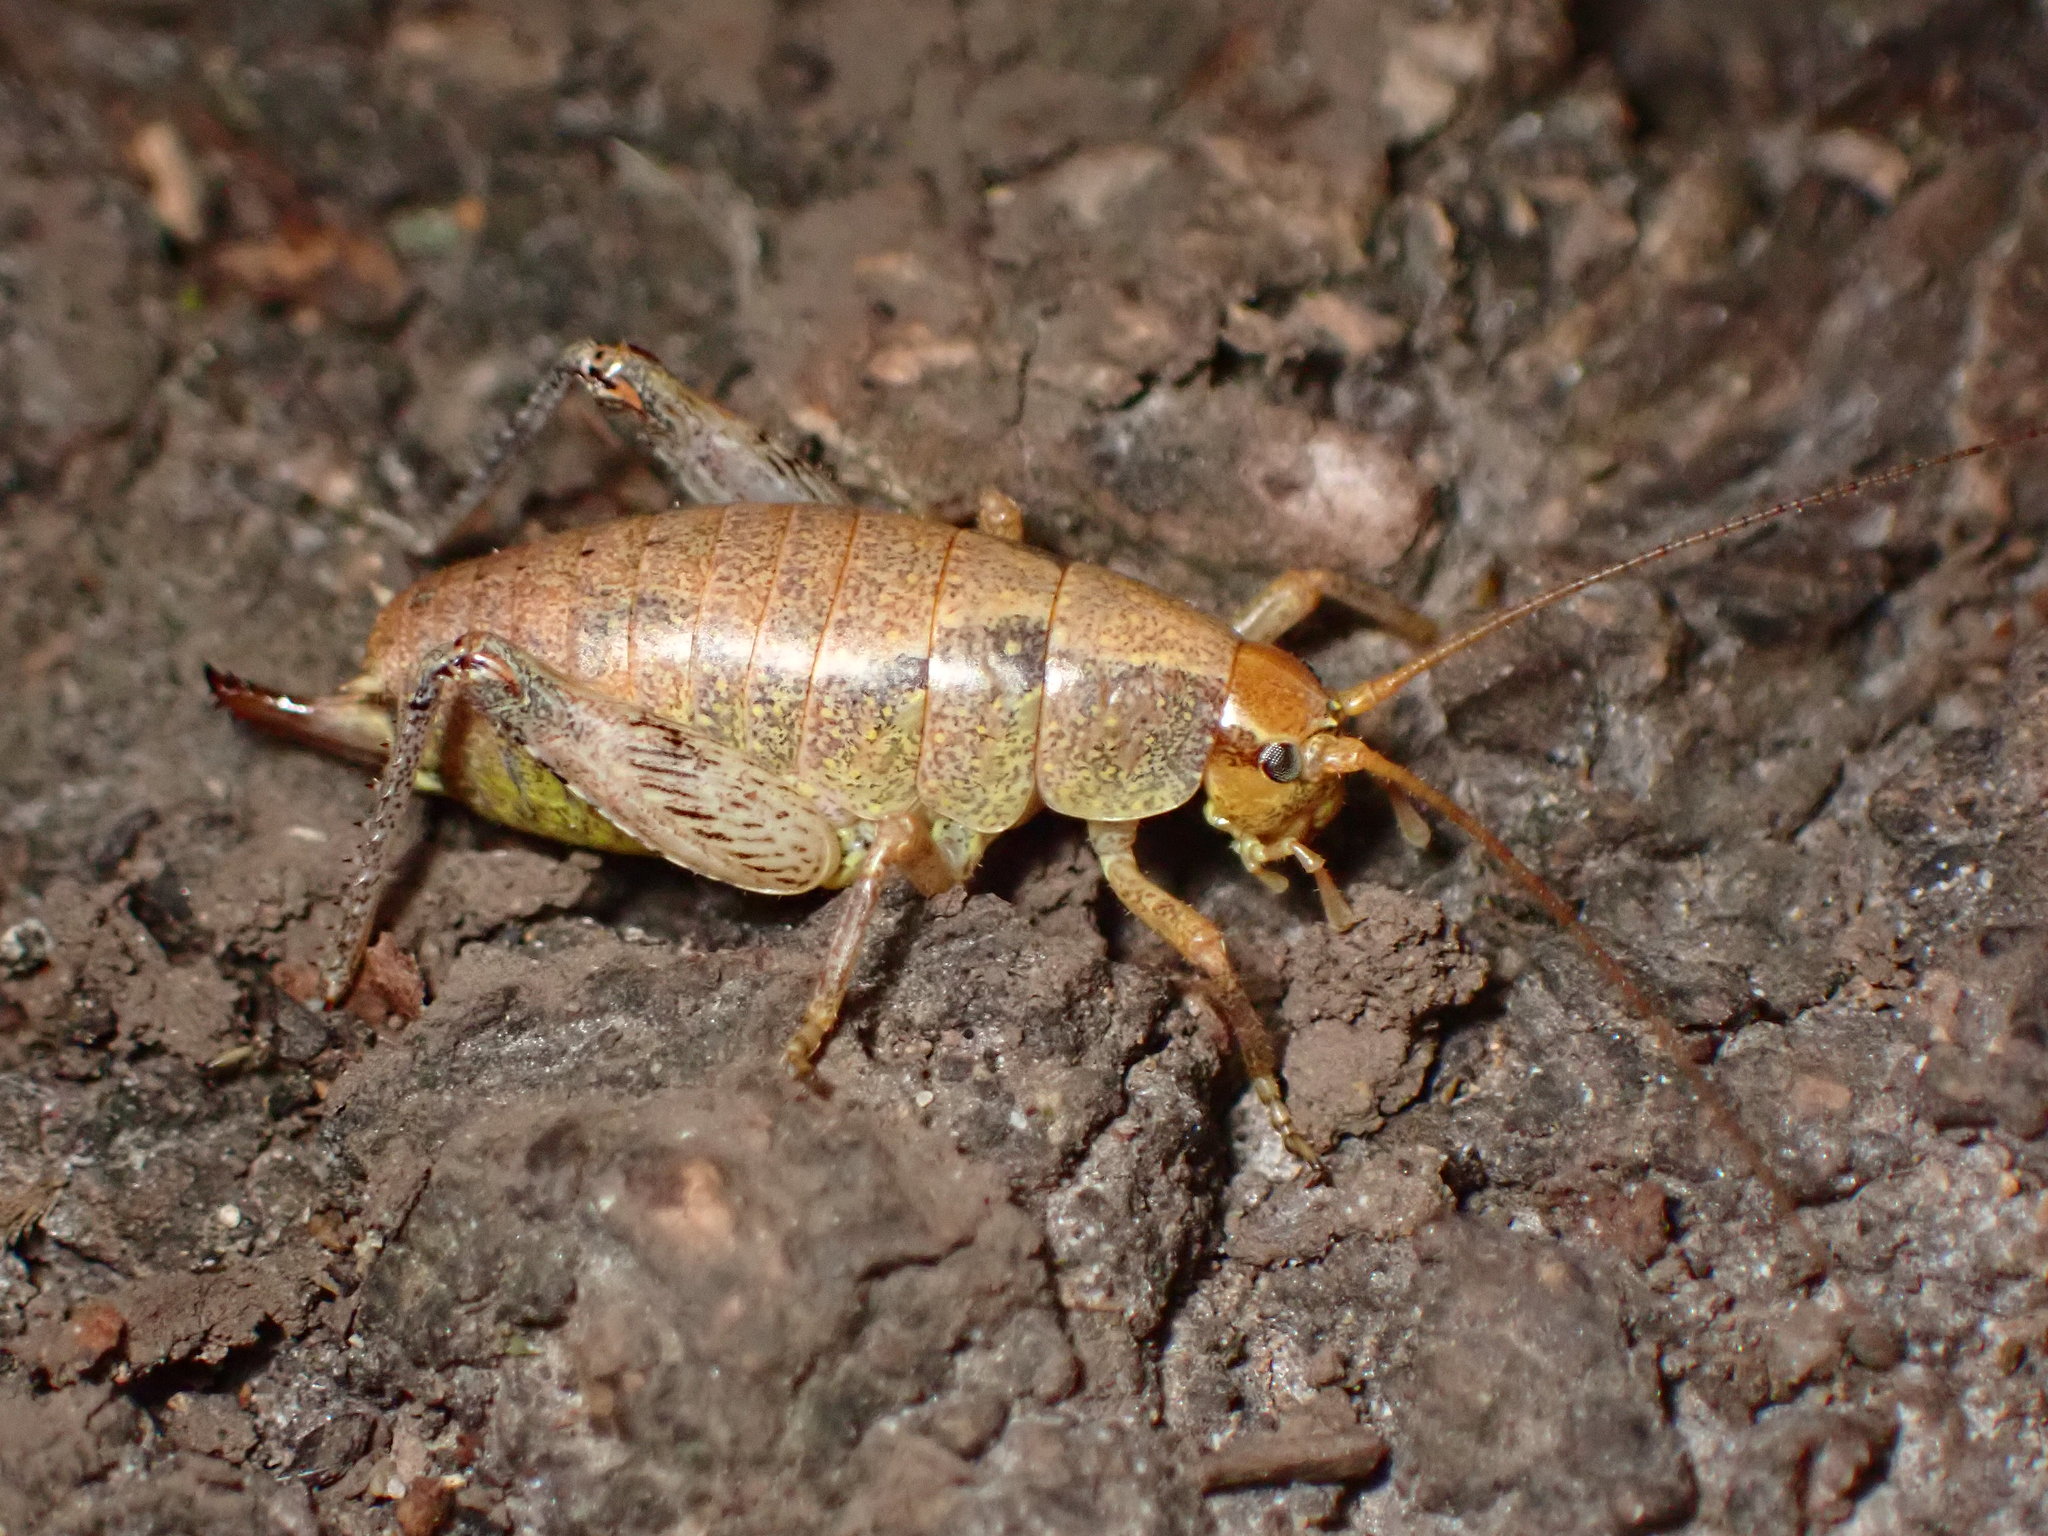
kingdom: Animalia
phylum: Arthropoda
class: Insecta
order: Orthoptera
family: Rhaphidophoridae
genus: Gammarotettix
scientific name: Gammarotettix bilobatus
